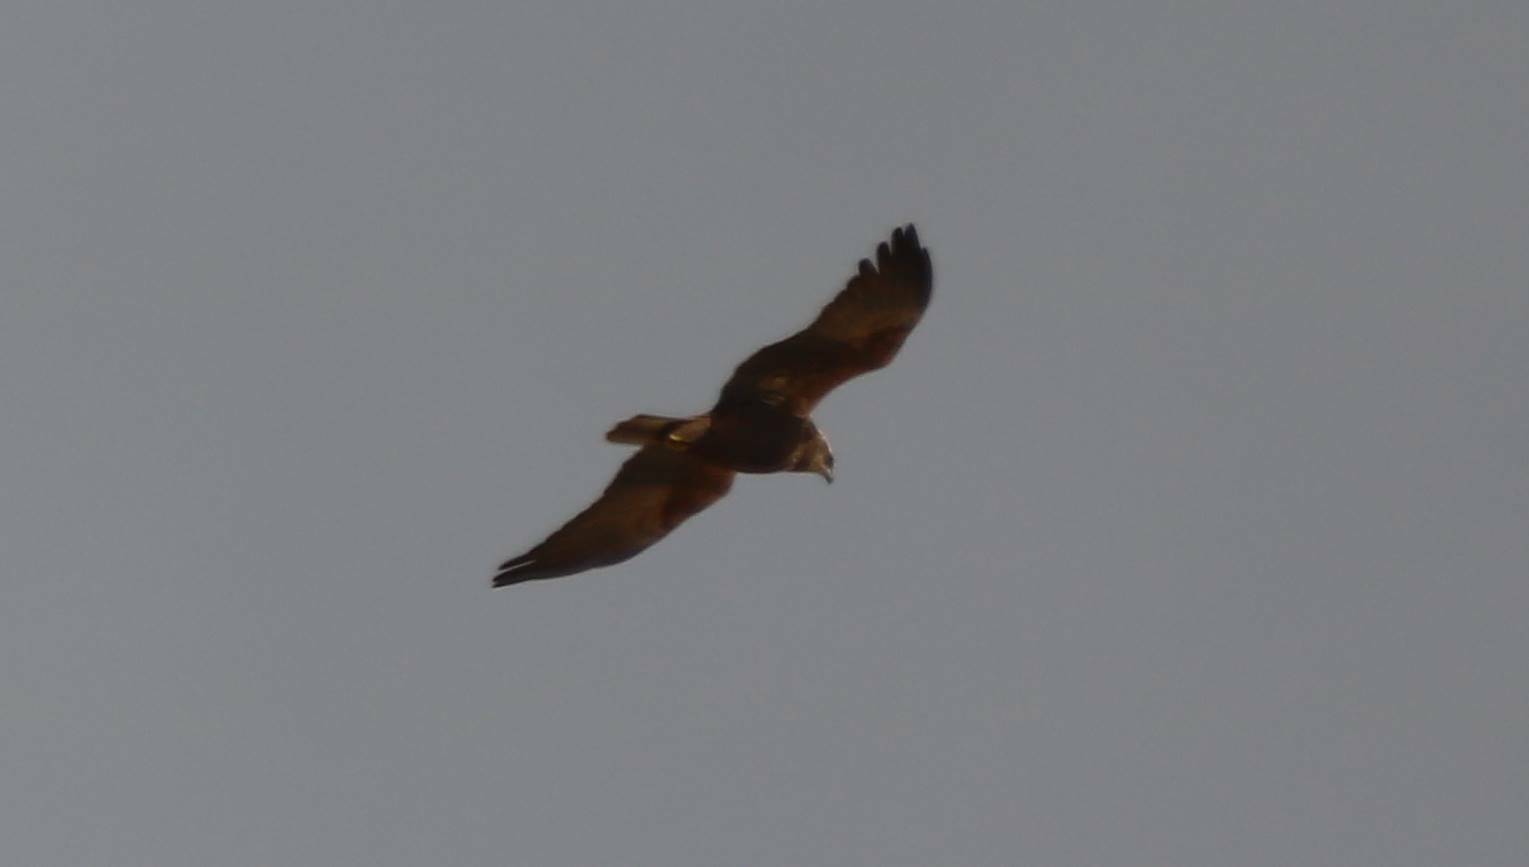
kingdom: Animalia
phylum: Chordata
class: Aves
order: Accipitriformes
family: Accipitridae
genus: Circus
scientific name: Circus aeruginosus
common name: Western marsh harrier
